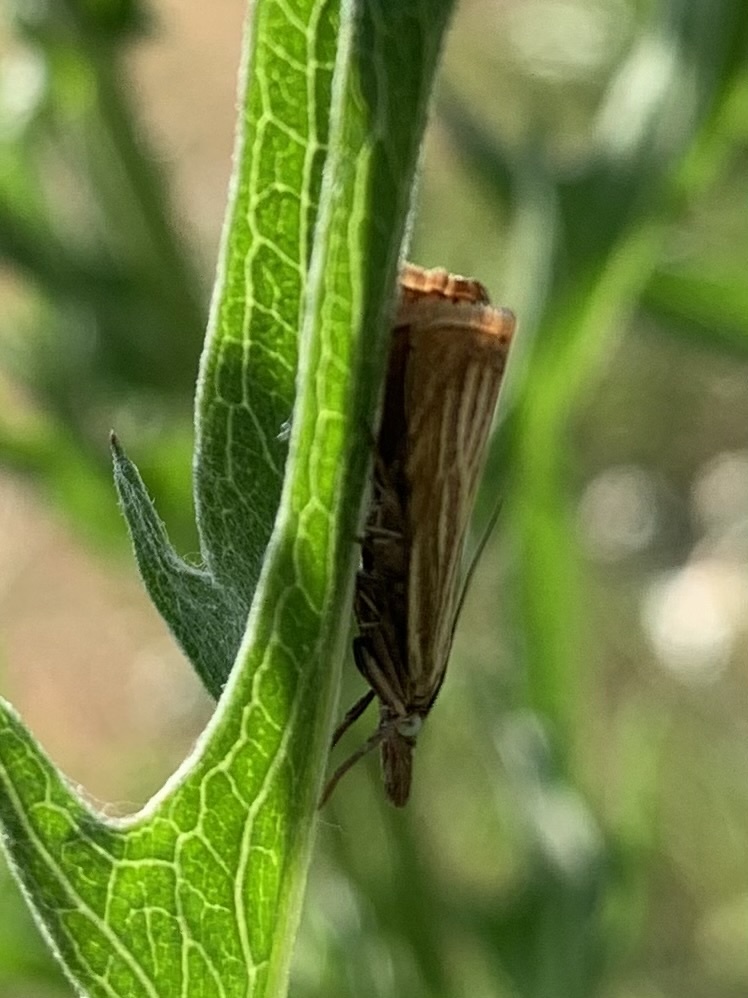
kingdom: Animalia
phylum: Arthropoda
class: Insecta
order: Lepidoptera
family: Crambidae
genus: Chrysoteuchia
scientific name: Chrysoteuchia culmella
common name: Garden grass-veneer
